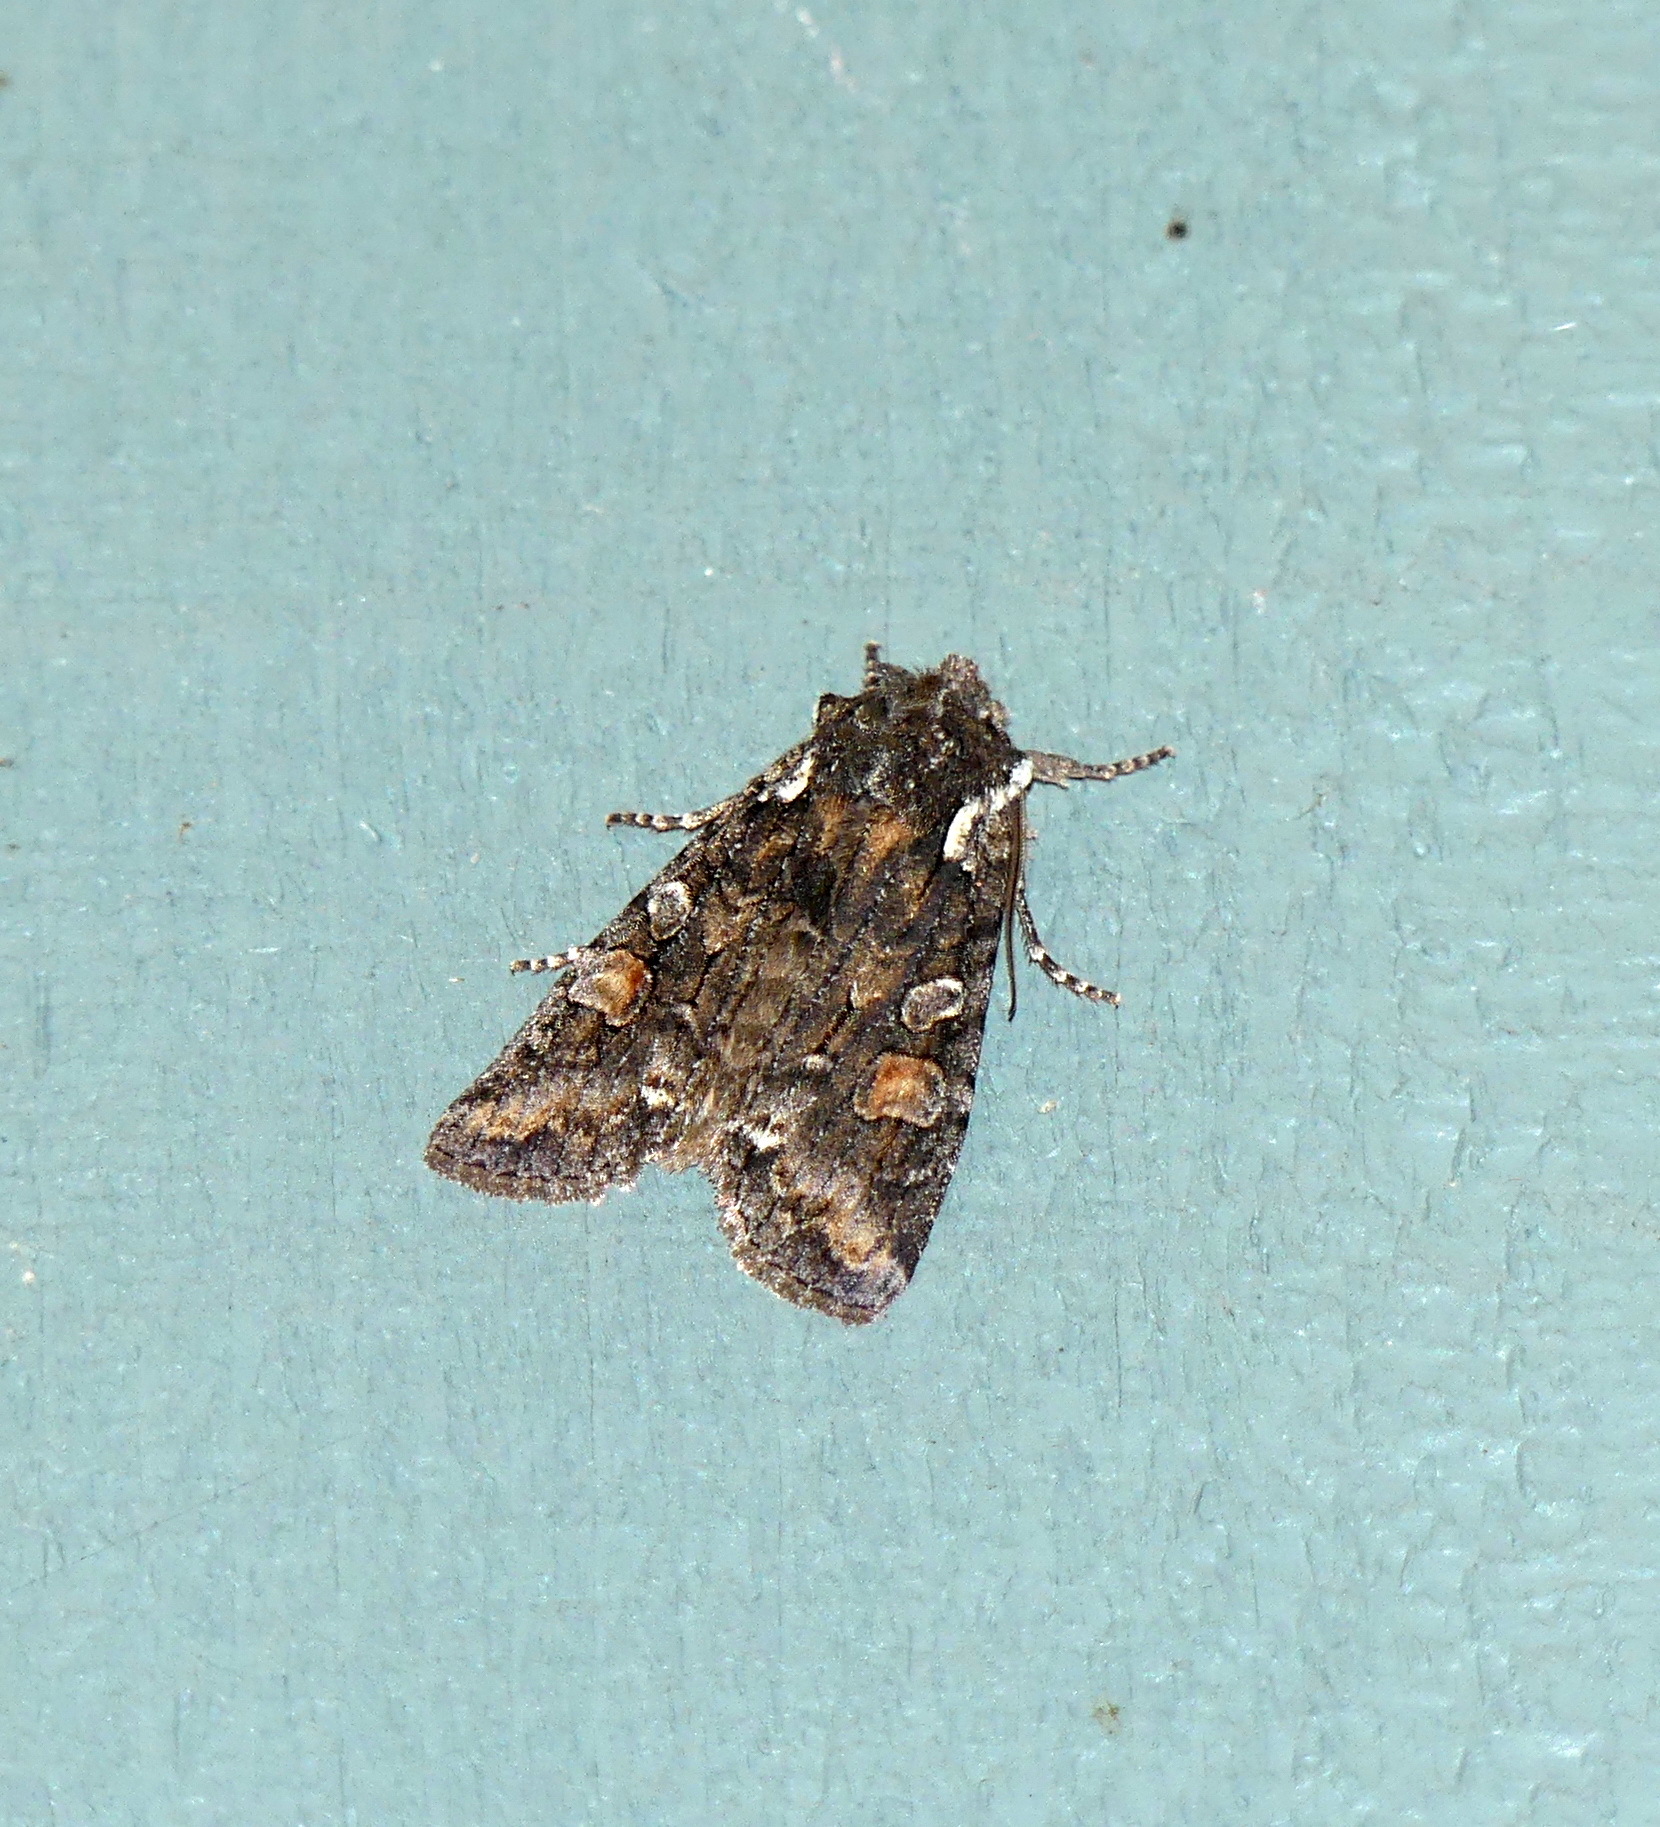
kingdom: Animalia
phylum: Arthropoda
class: Insecta
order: Lepidoptera
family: Noctuidae
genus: Lithophane
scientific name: Lithophane pexata
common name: Plush-naped pinion moth
